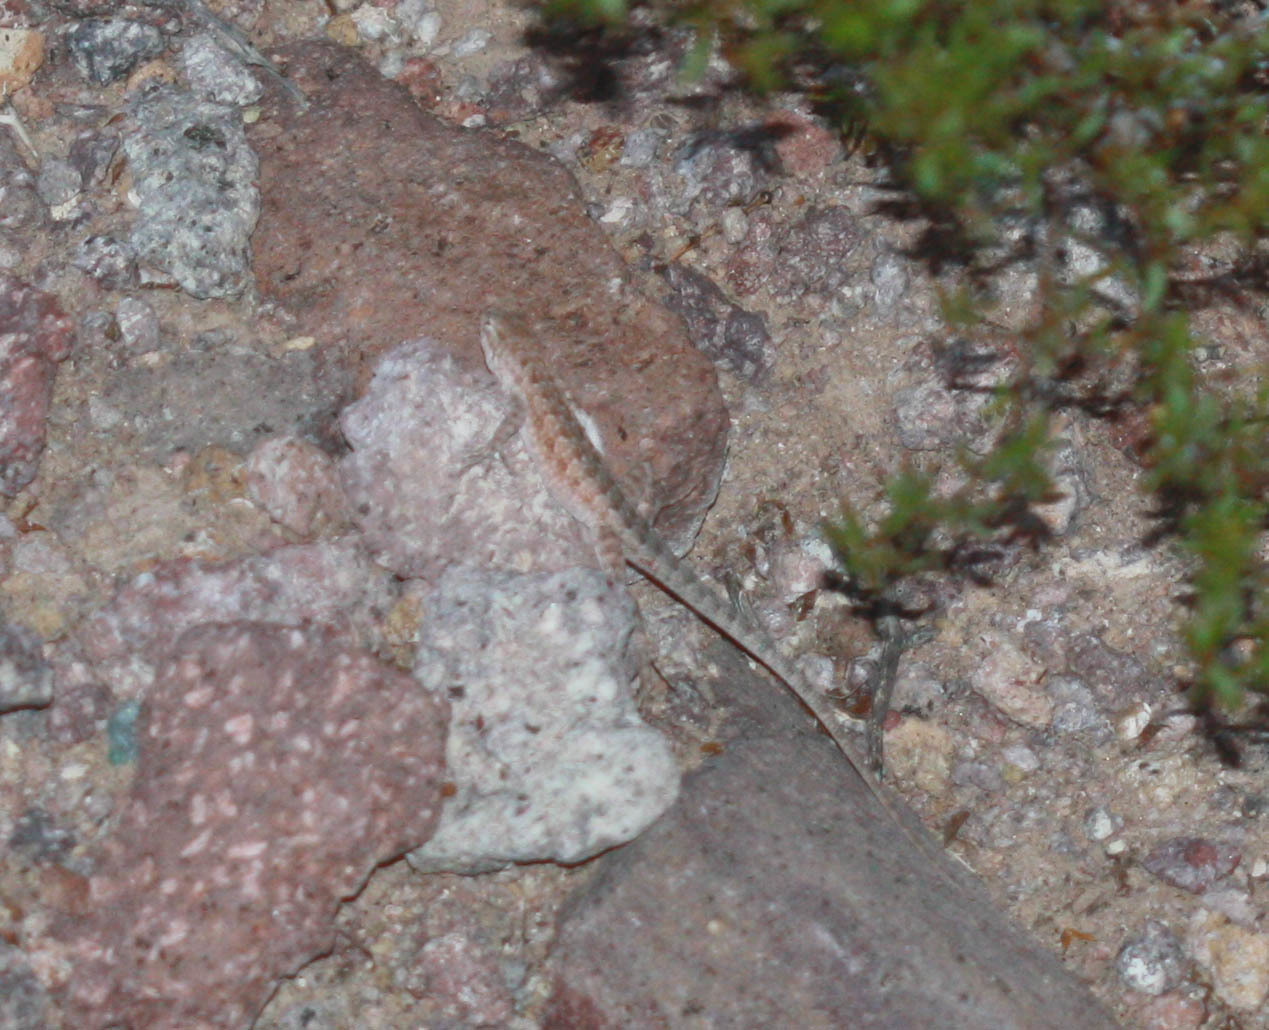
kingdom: Animalia
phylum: Chordata
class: Squamata
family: Phrynosomatidae
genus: Uta
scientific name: Uta stansburiana
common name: Side-blotched lizard
